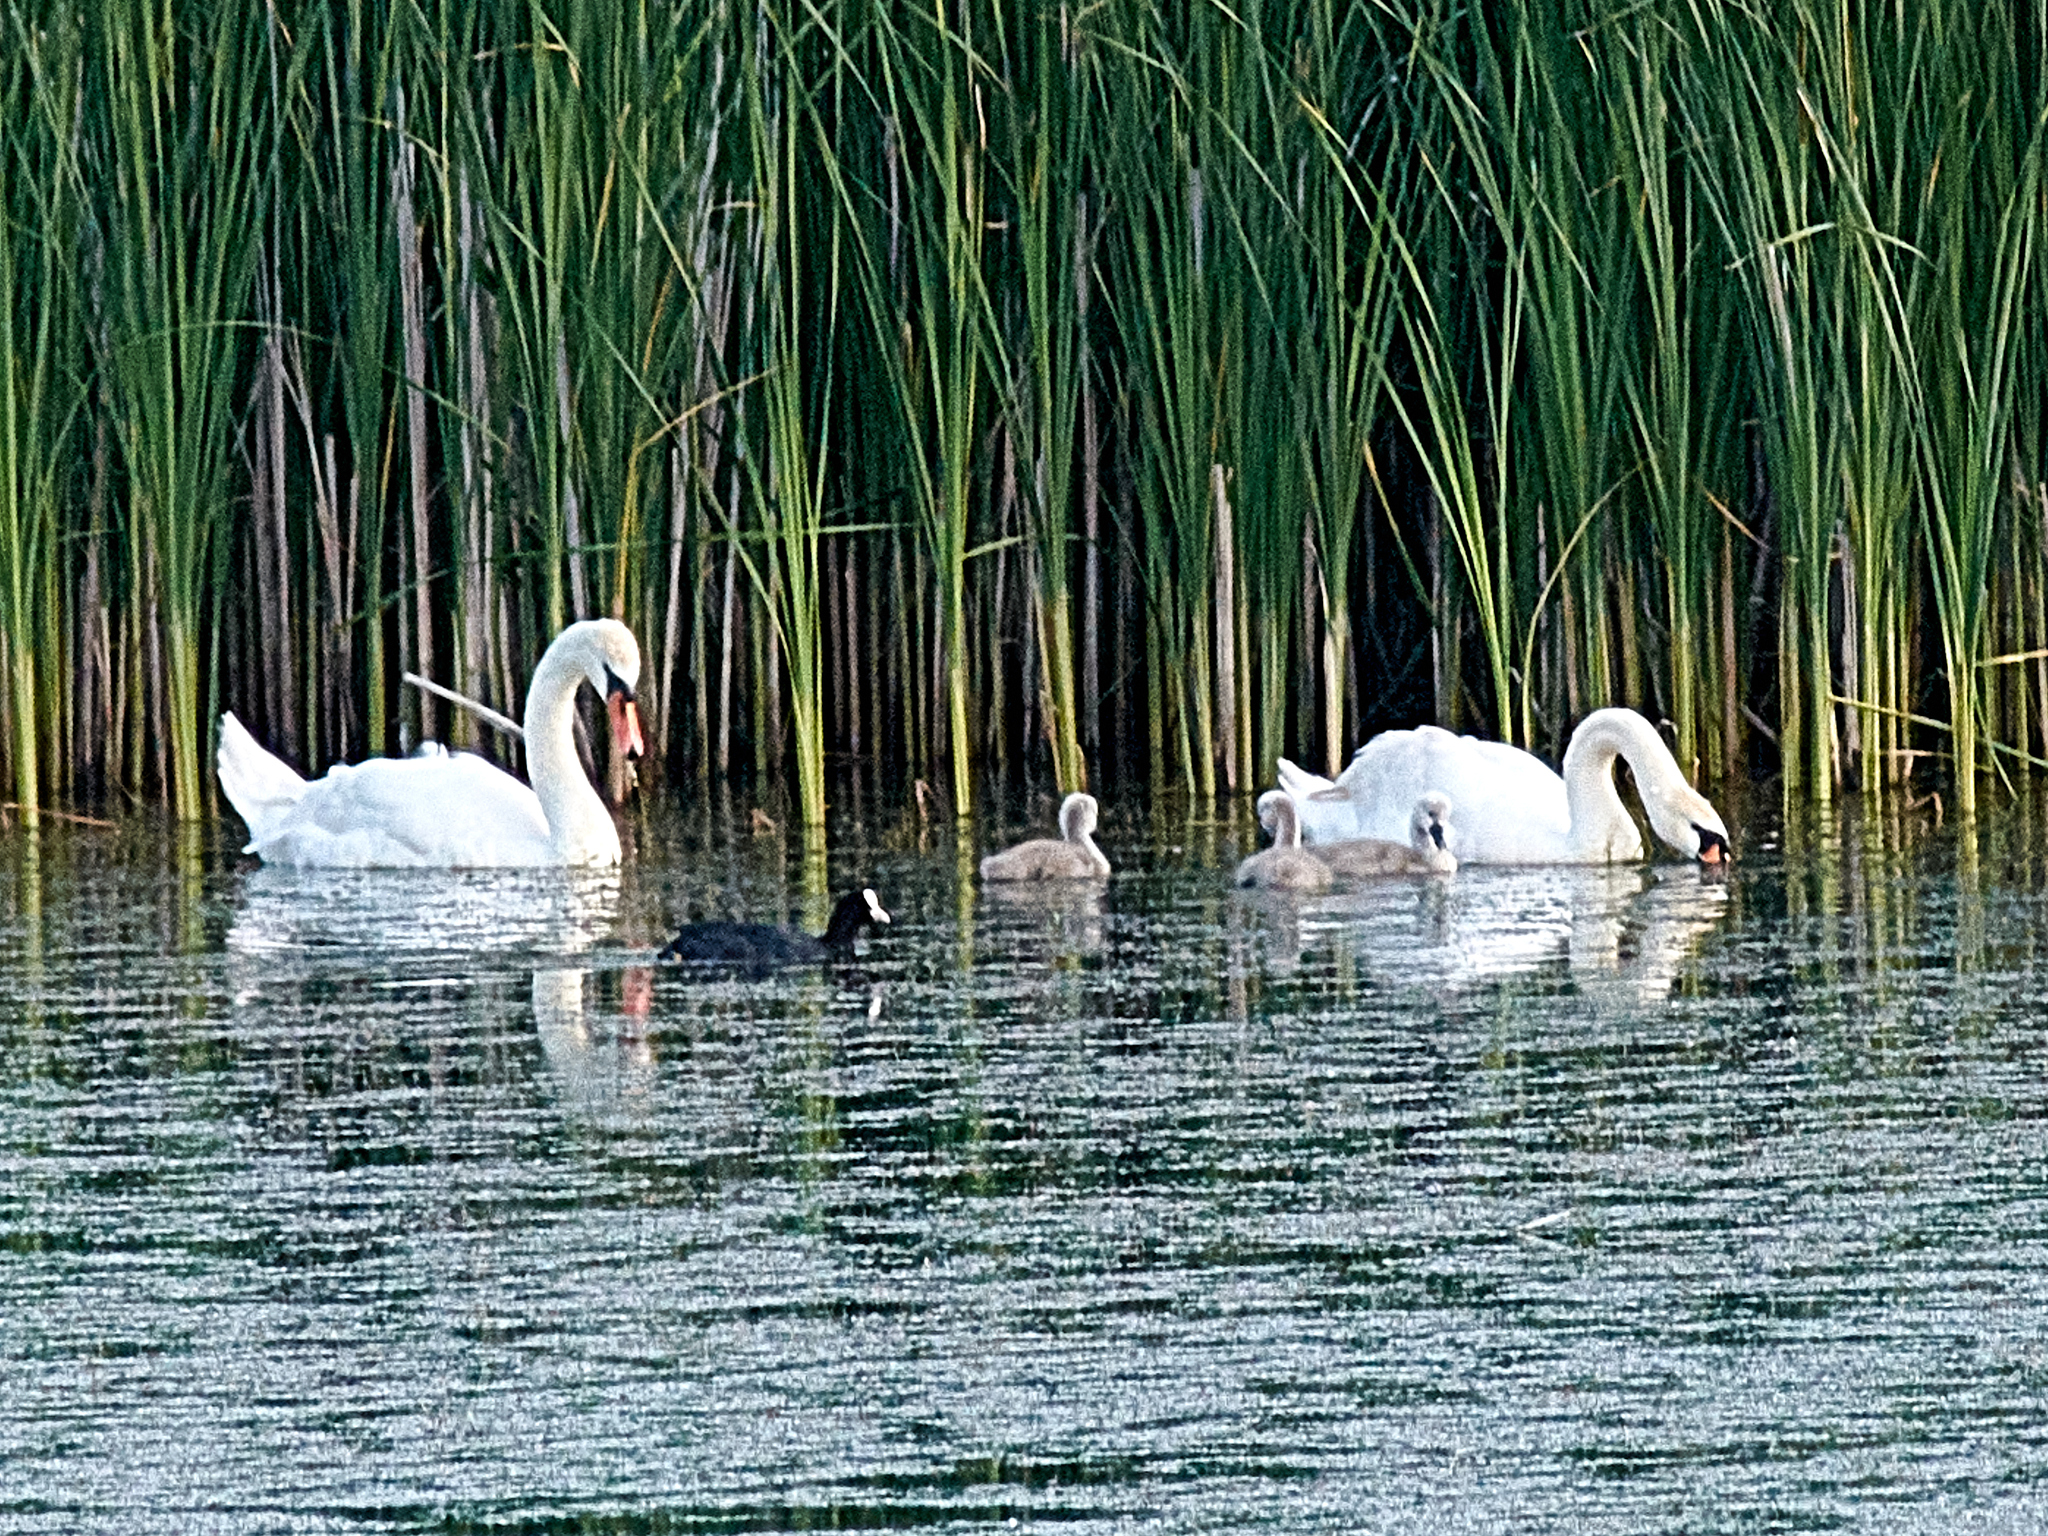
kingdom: Animalia
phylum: Chordata
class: Aves
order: Anseriformes
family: Anatidae
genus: Cygnus
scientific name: Cygnus olor
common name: Mute swan
